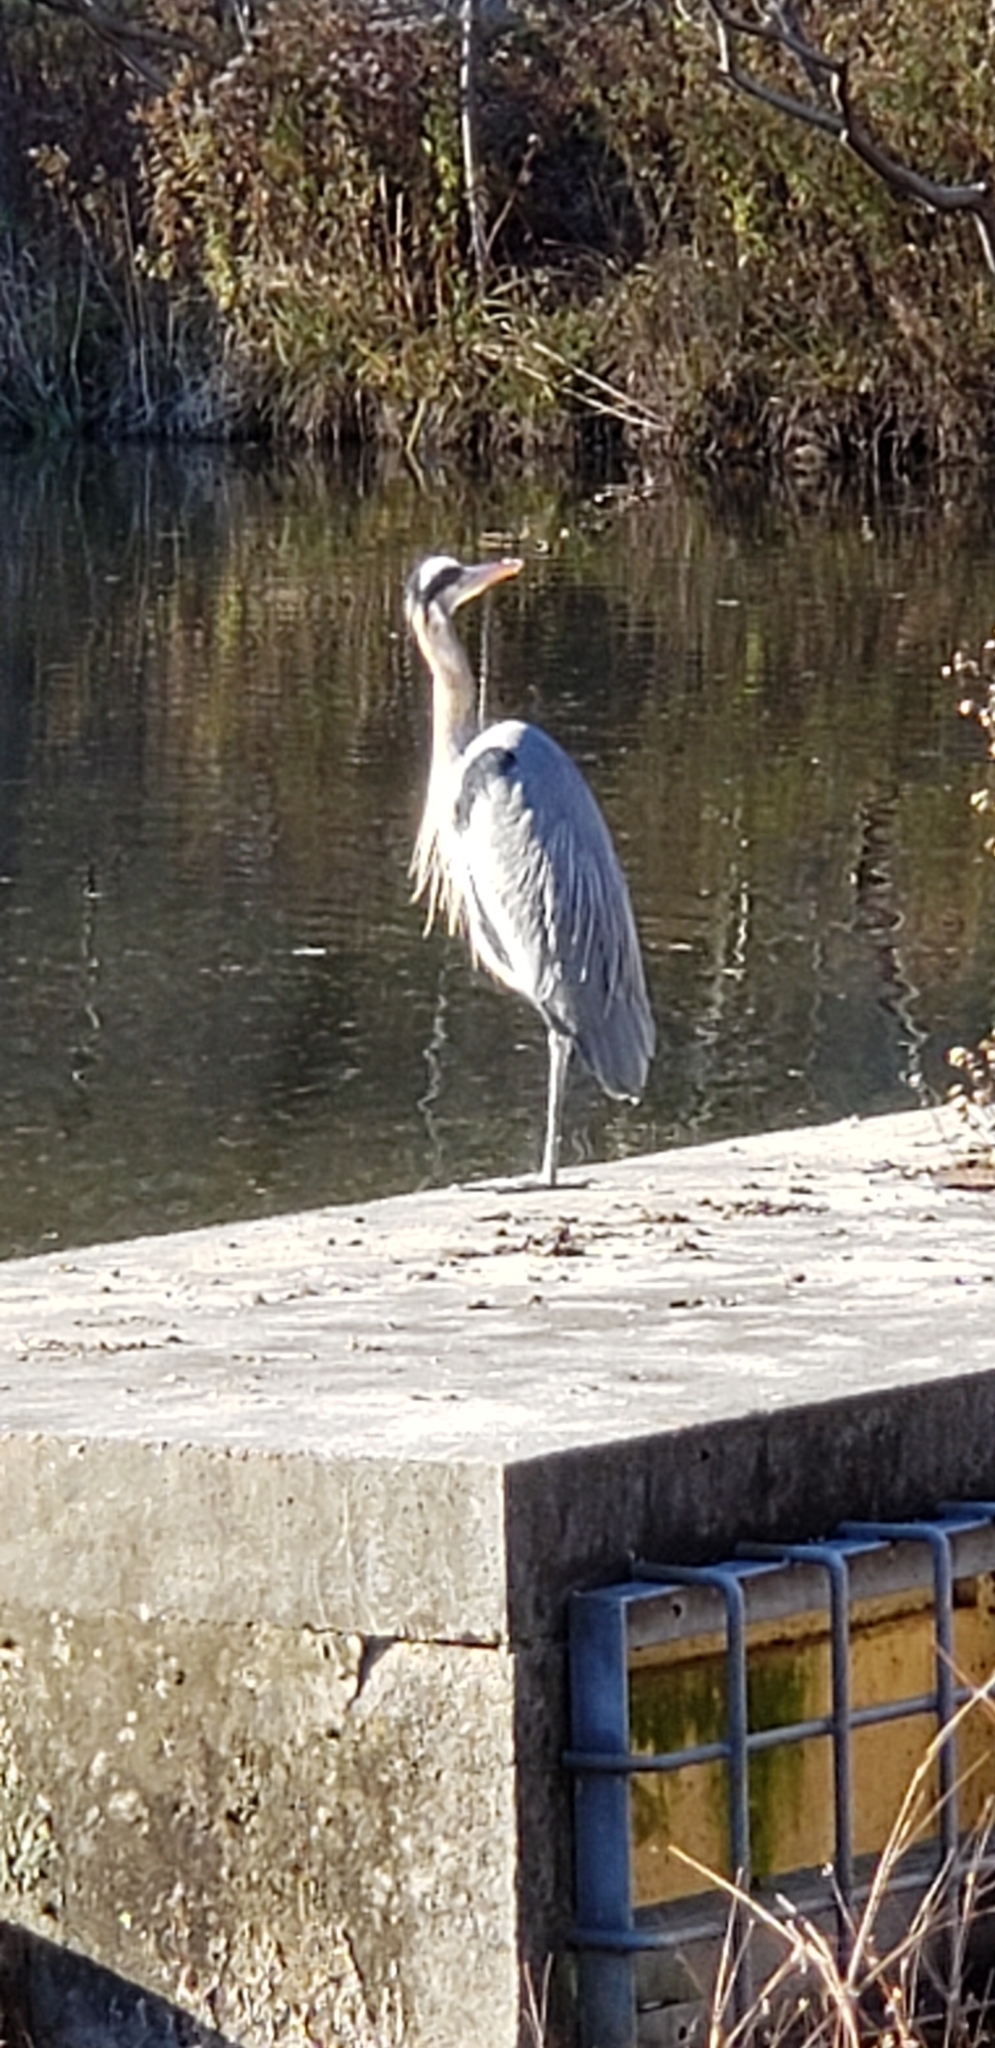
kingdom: Animalia
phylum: Chordata
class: Aves
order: Pelecaniformes
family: Ardeidae
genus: Ardea
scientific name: Ardea herodias
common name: Great blue heron
